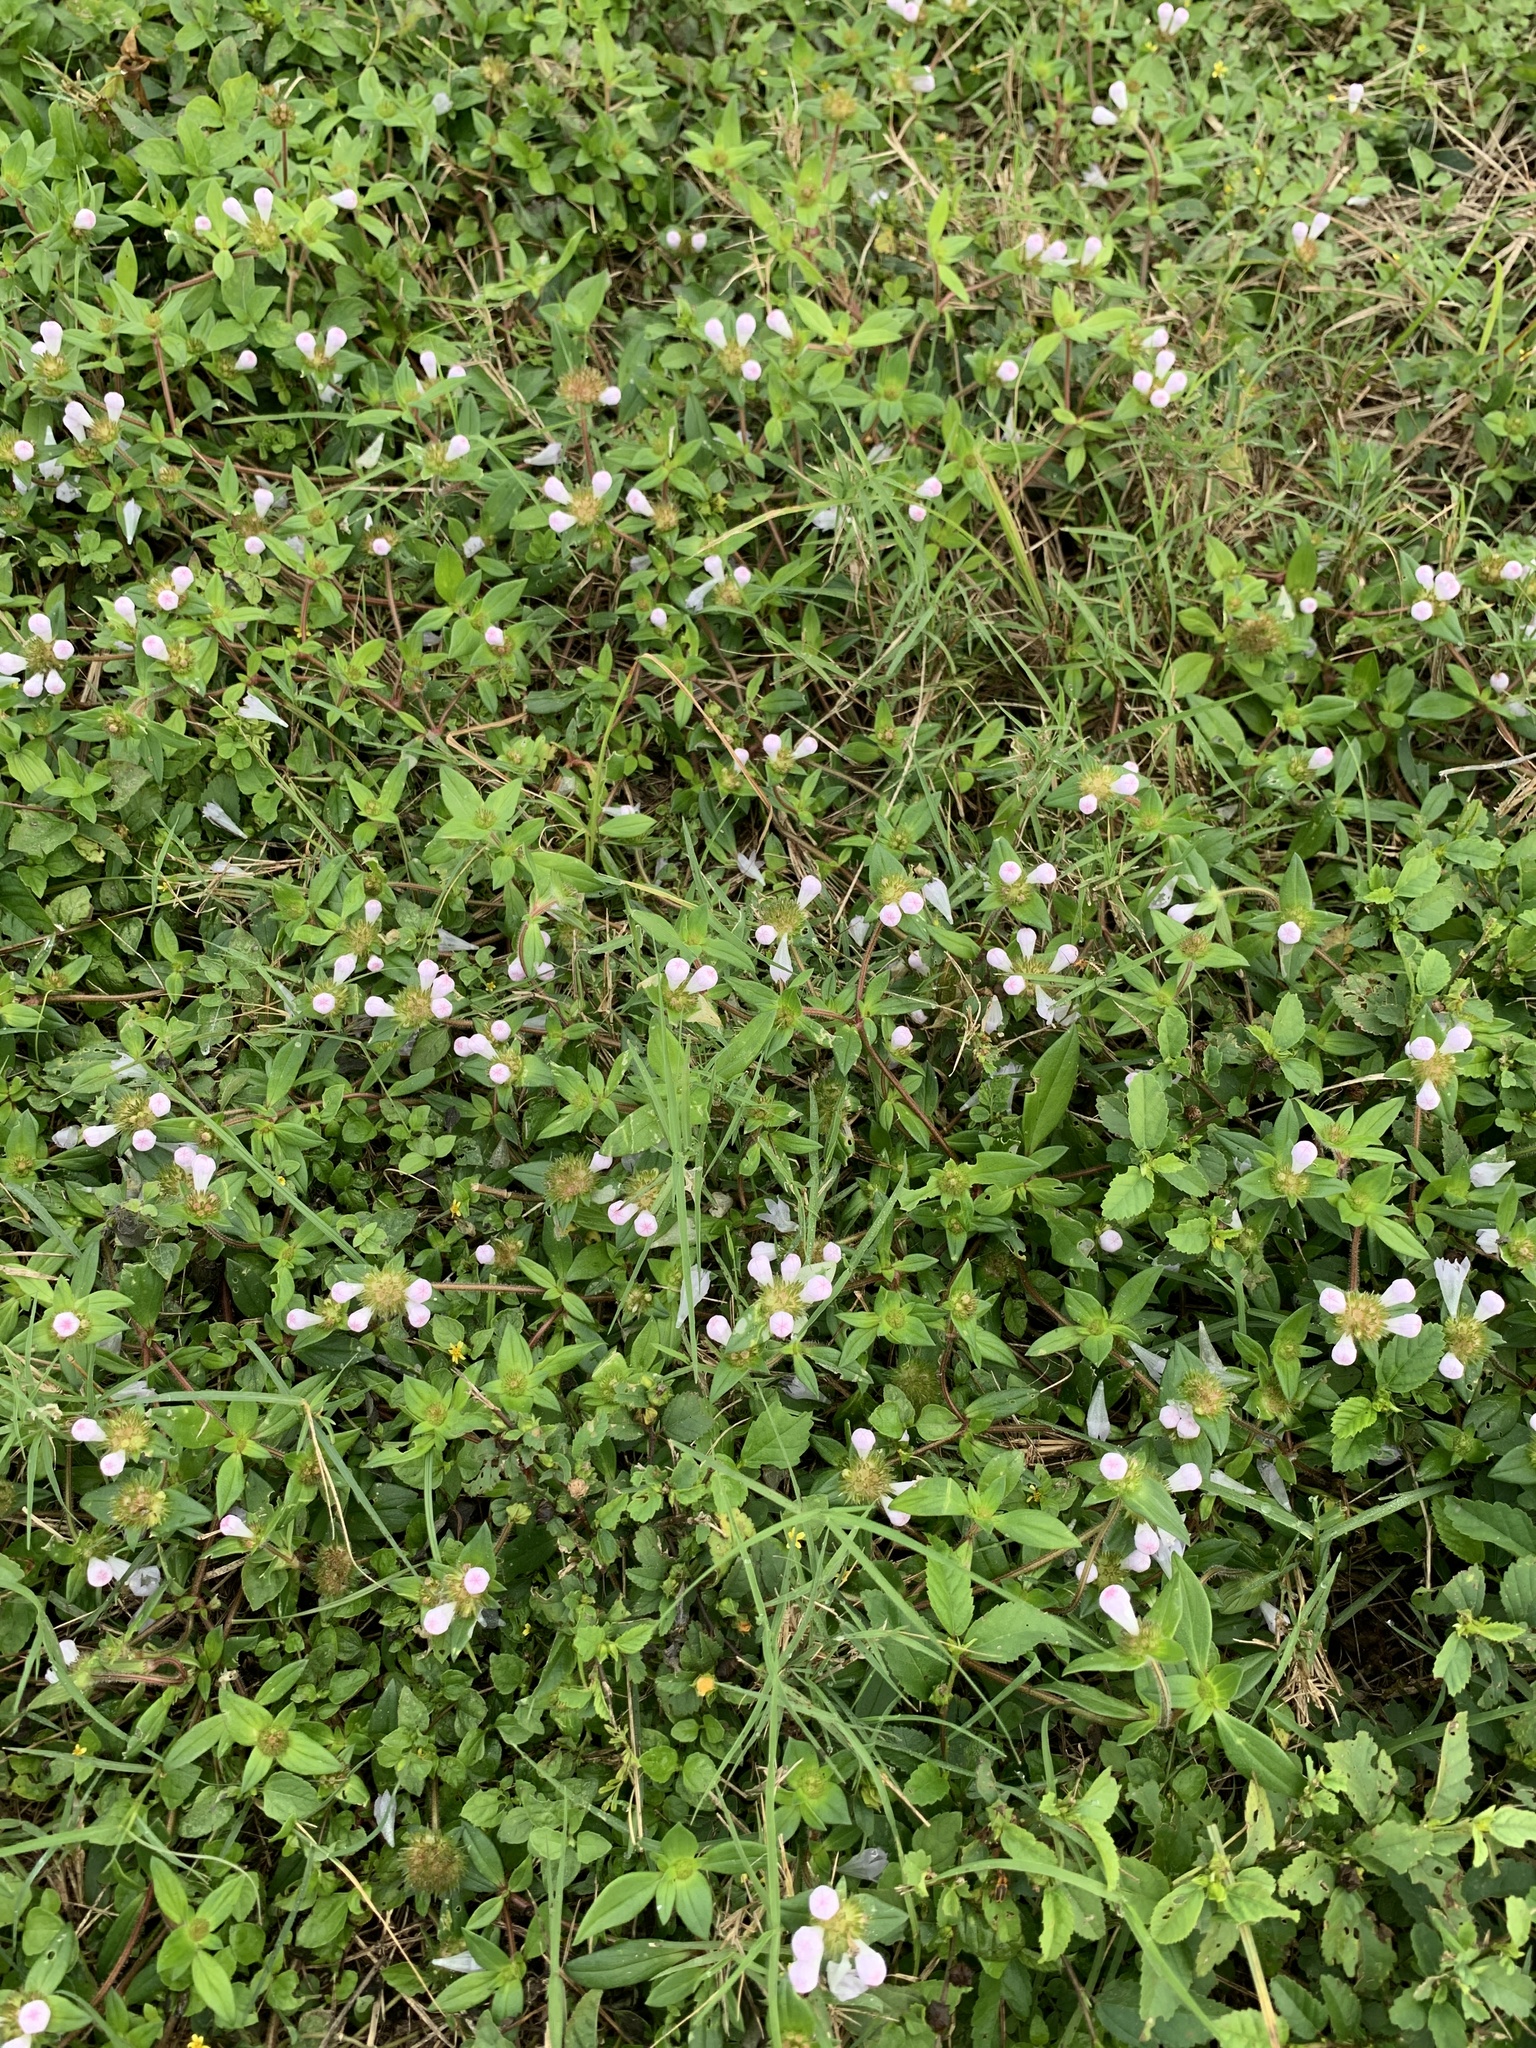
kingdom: Plantae
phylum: Tracheophyta
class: Magnoliopsida
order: Gentianales
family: Rubiaceae
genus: Richardia
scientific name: Richardia grandiflora
